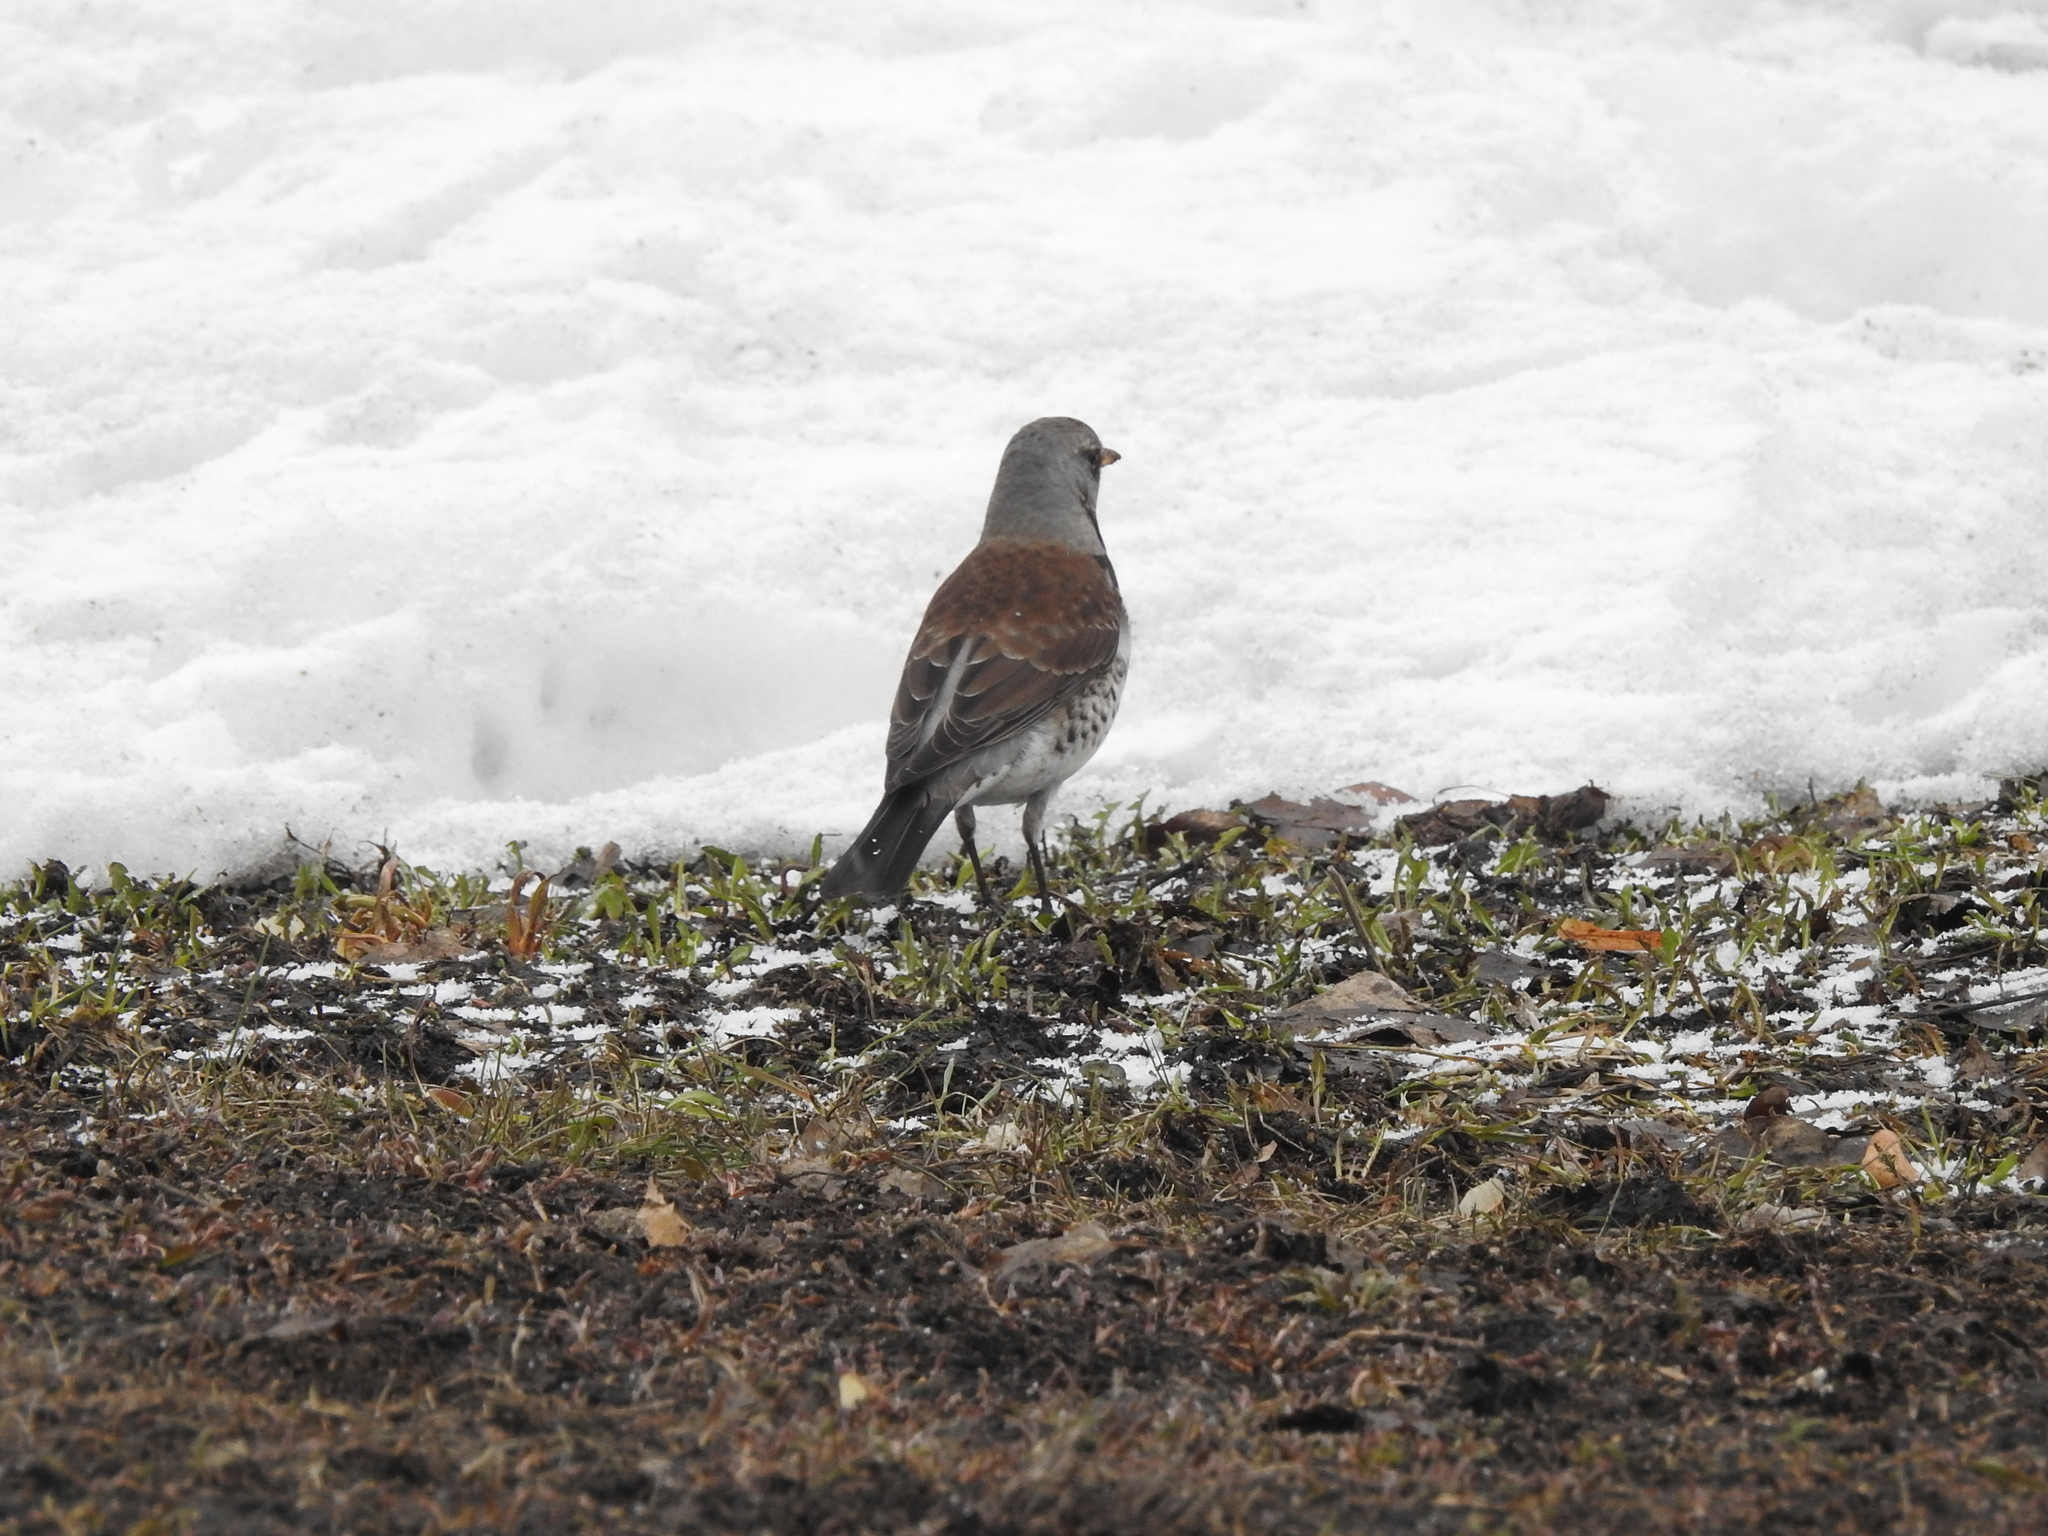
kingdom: Animalia
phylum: Chordata
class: Aves
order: Passeriformes
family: Turdidae
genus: Turdus
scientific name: Turdus pilaris
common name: Fieldfare
